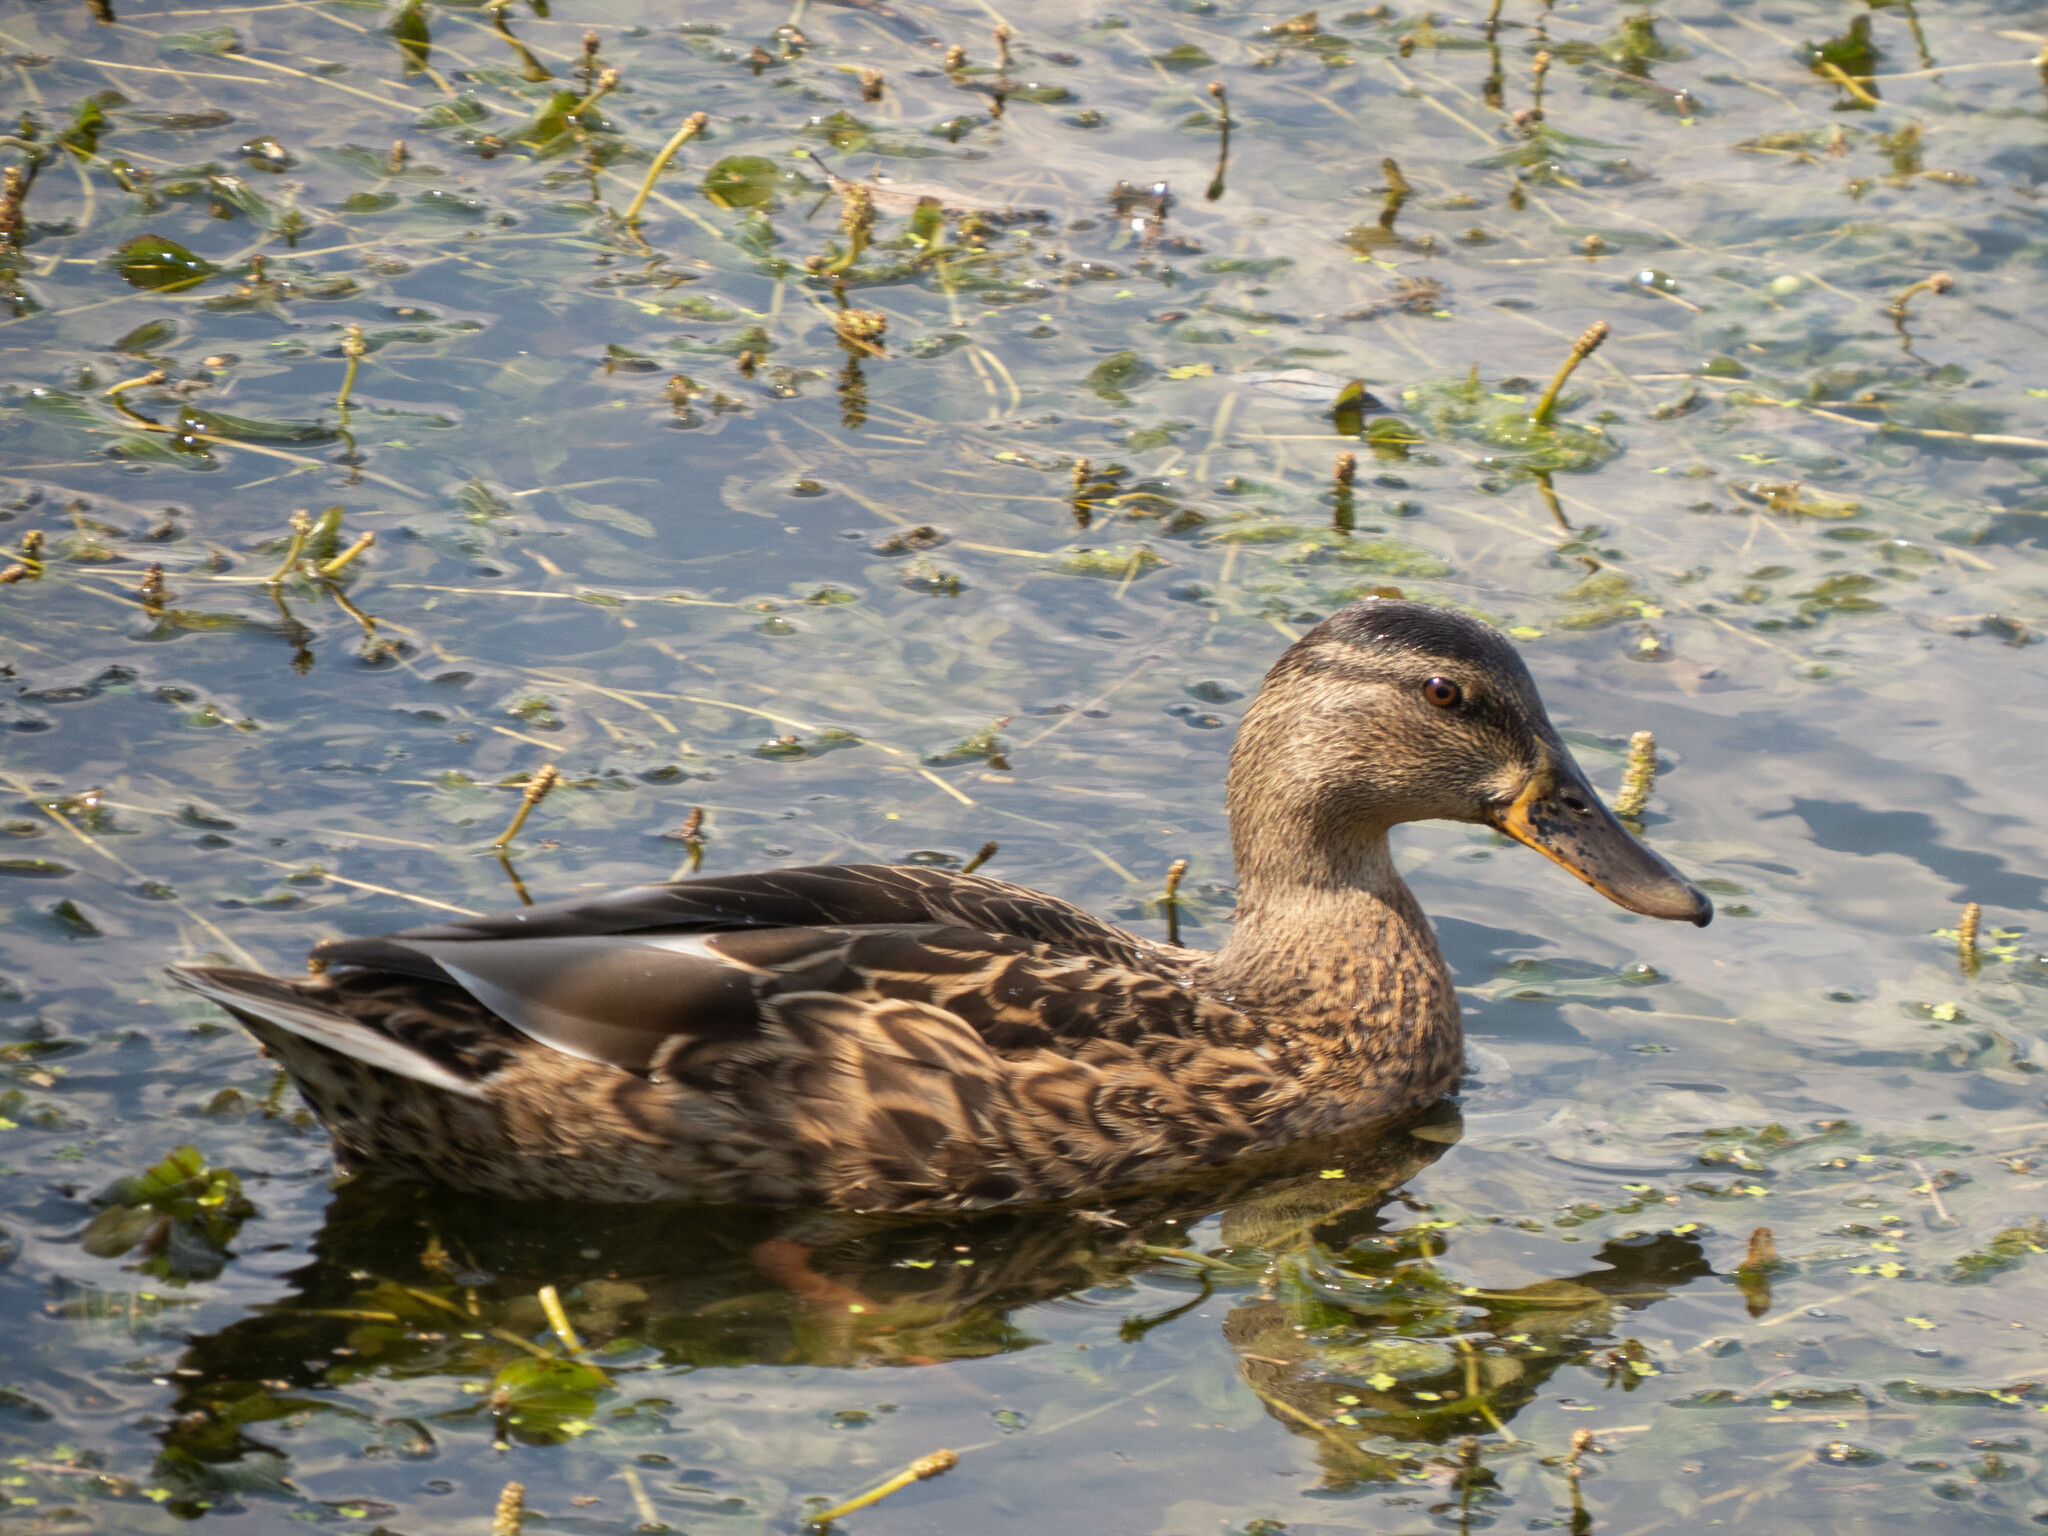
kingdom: Animalia
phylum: Chordata
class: Aves
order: Anseriformes
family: Anatidae
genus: Anas
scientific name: Anas platyrhynchos
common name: Mallard
